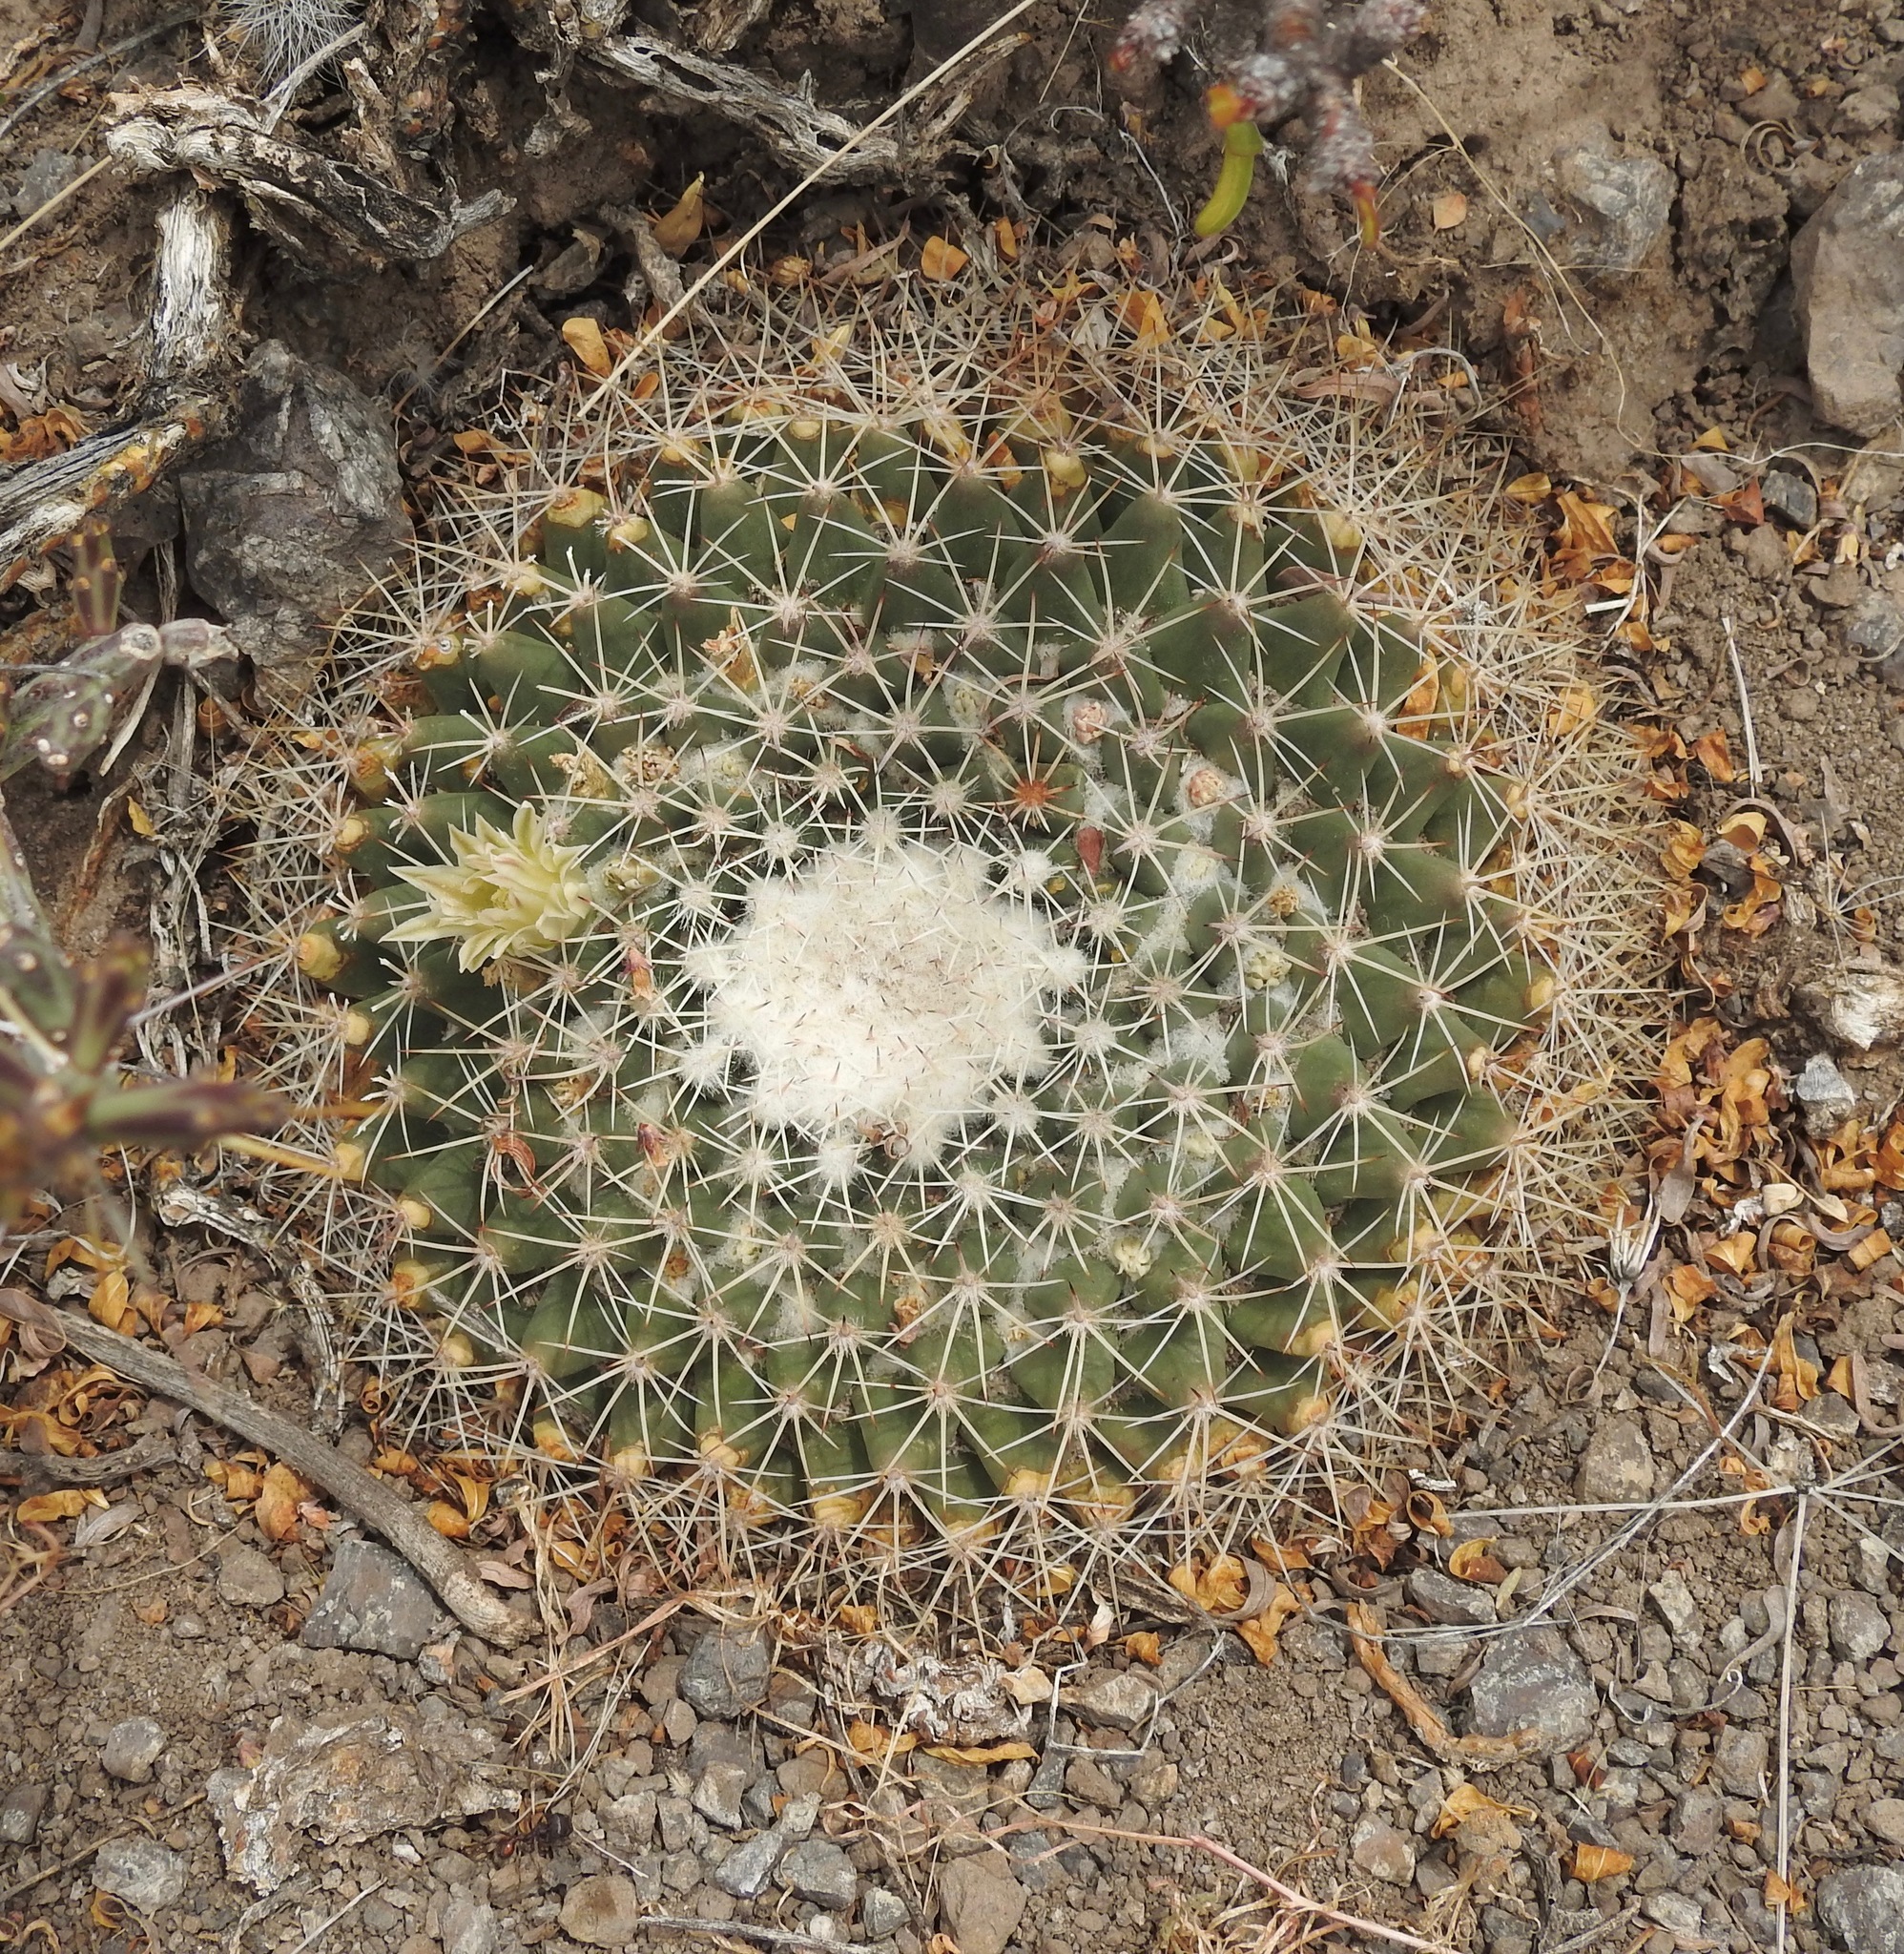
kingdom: Plantae
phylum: Tracheophyta
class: Magnoliopsida
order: Caryophyllales
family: Cactaceae
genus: Mammillaria
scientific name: Mammillaria heyderi
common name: Little nipple cactus
